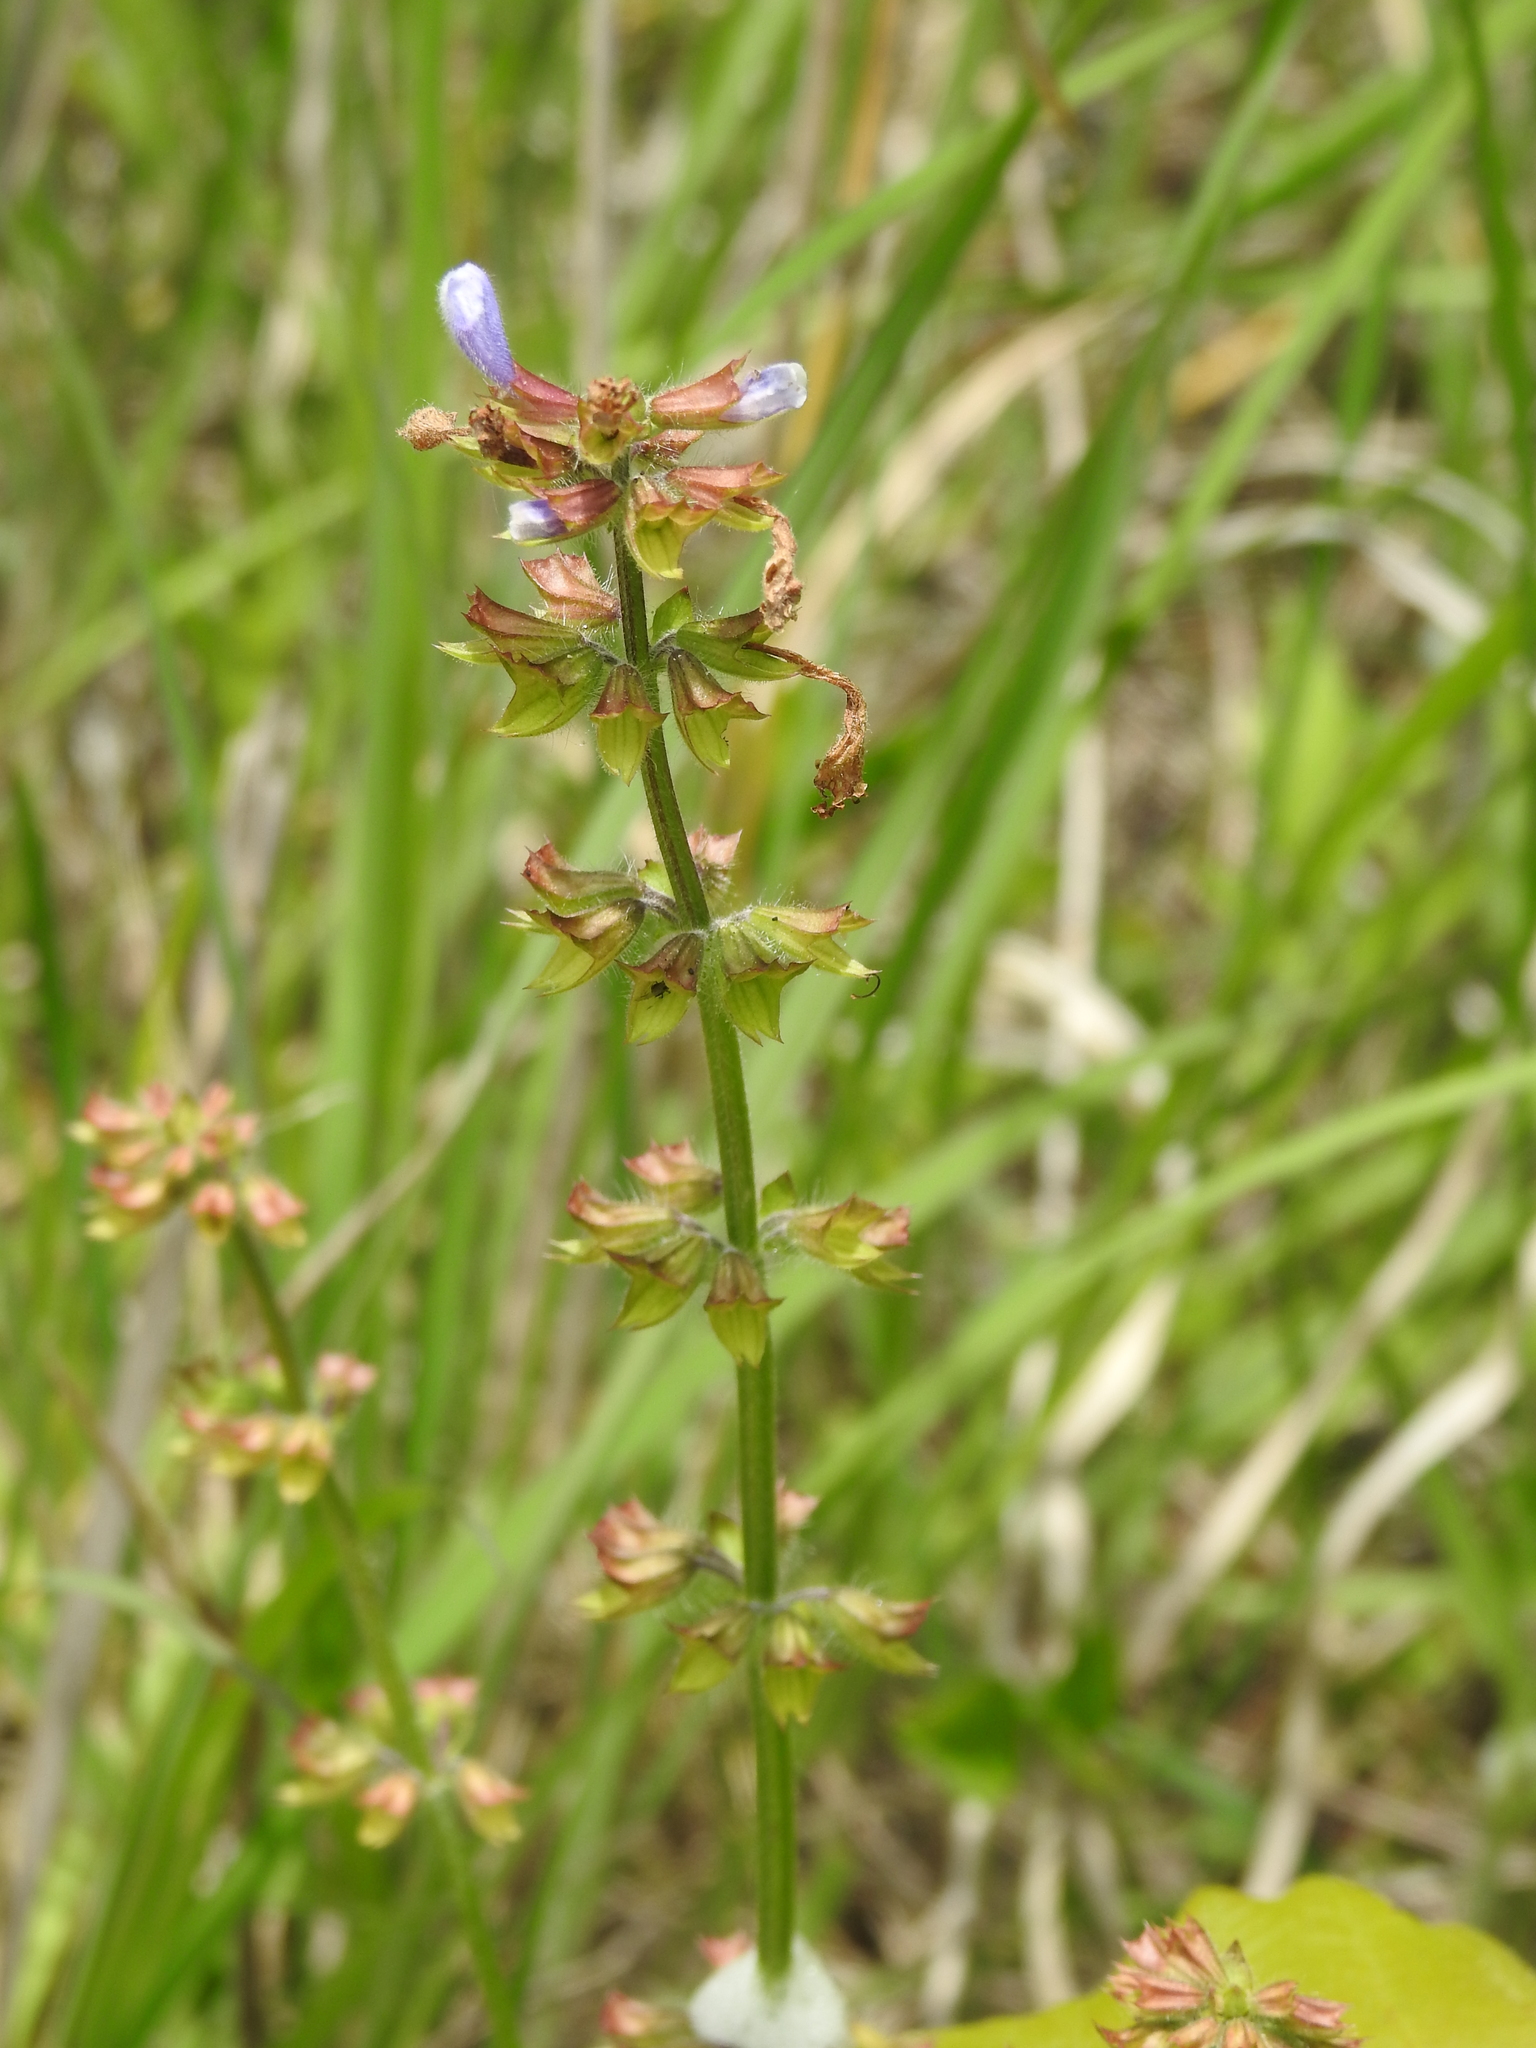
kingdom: Plantae
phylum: Tracheophyta
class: Magnoliopsida
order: Lamiales
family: Lamiaceae
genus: Salvia
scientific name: Salvia lyrata
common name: Cancerweed
